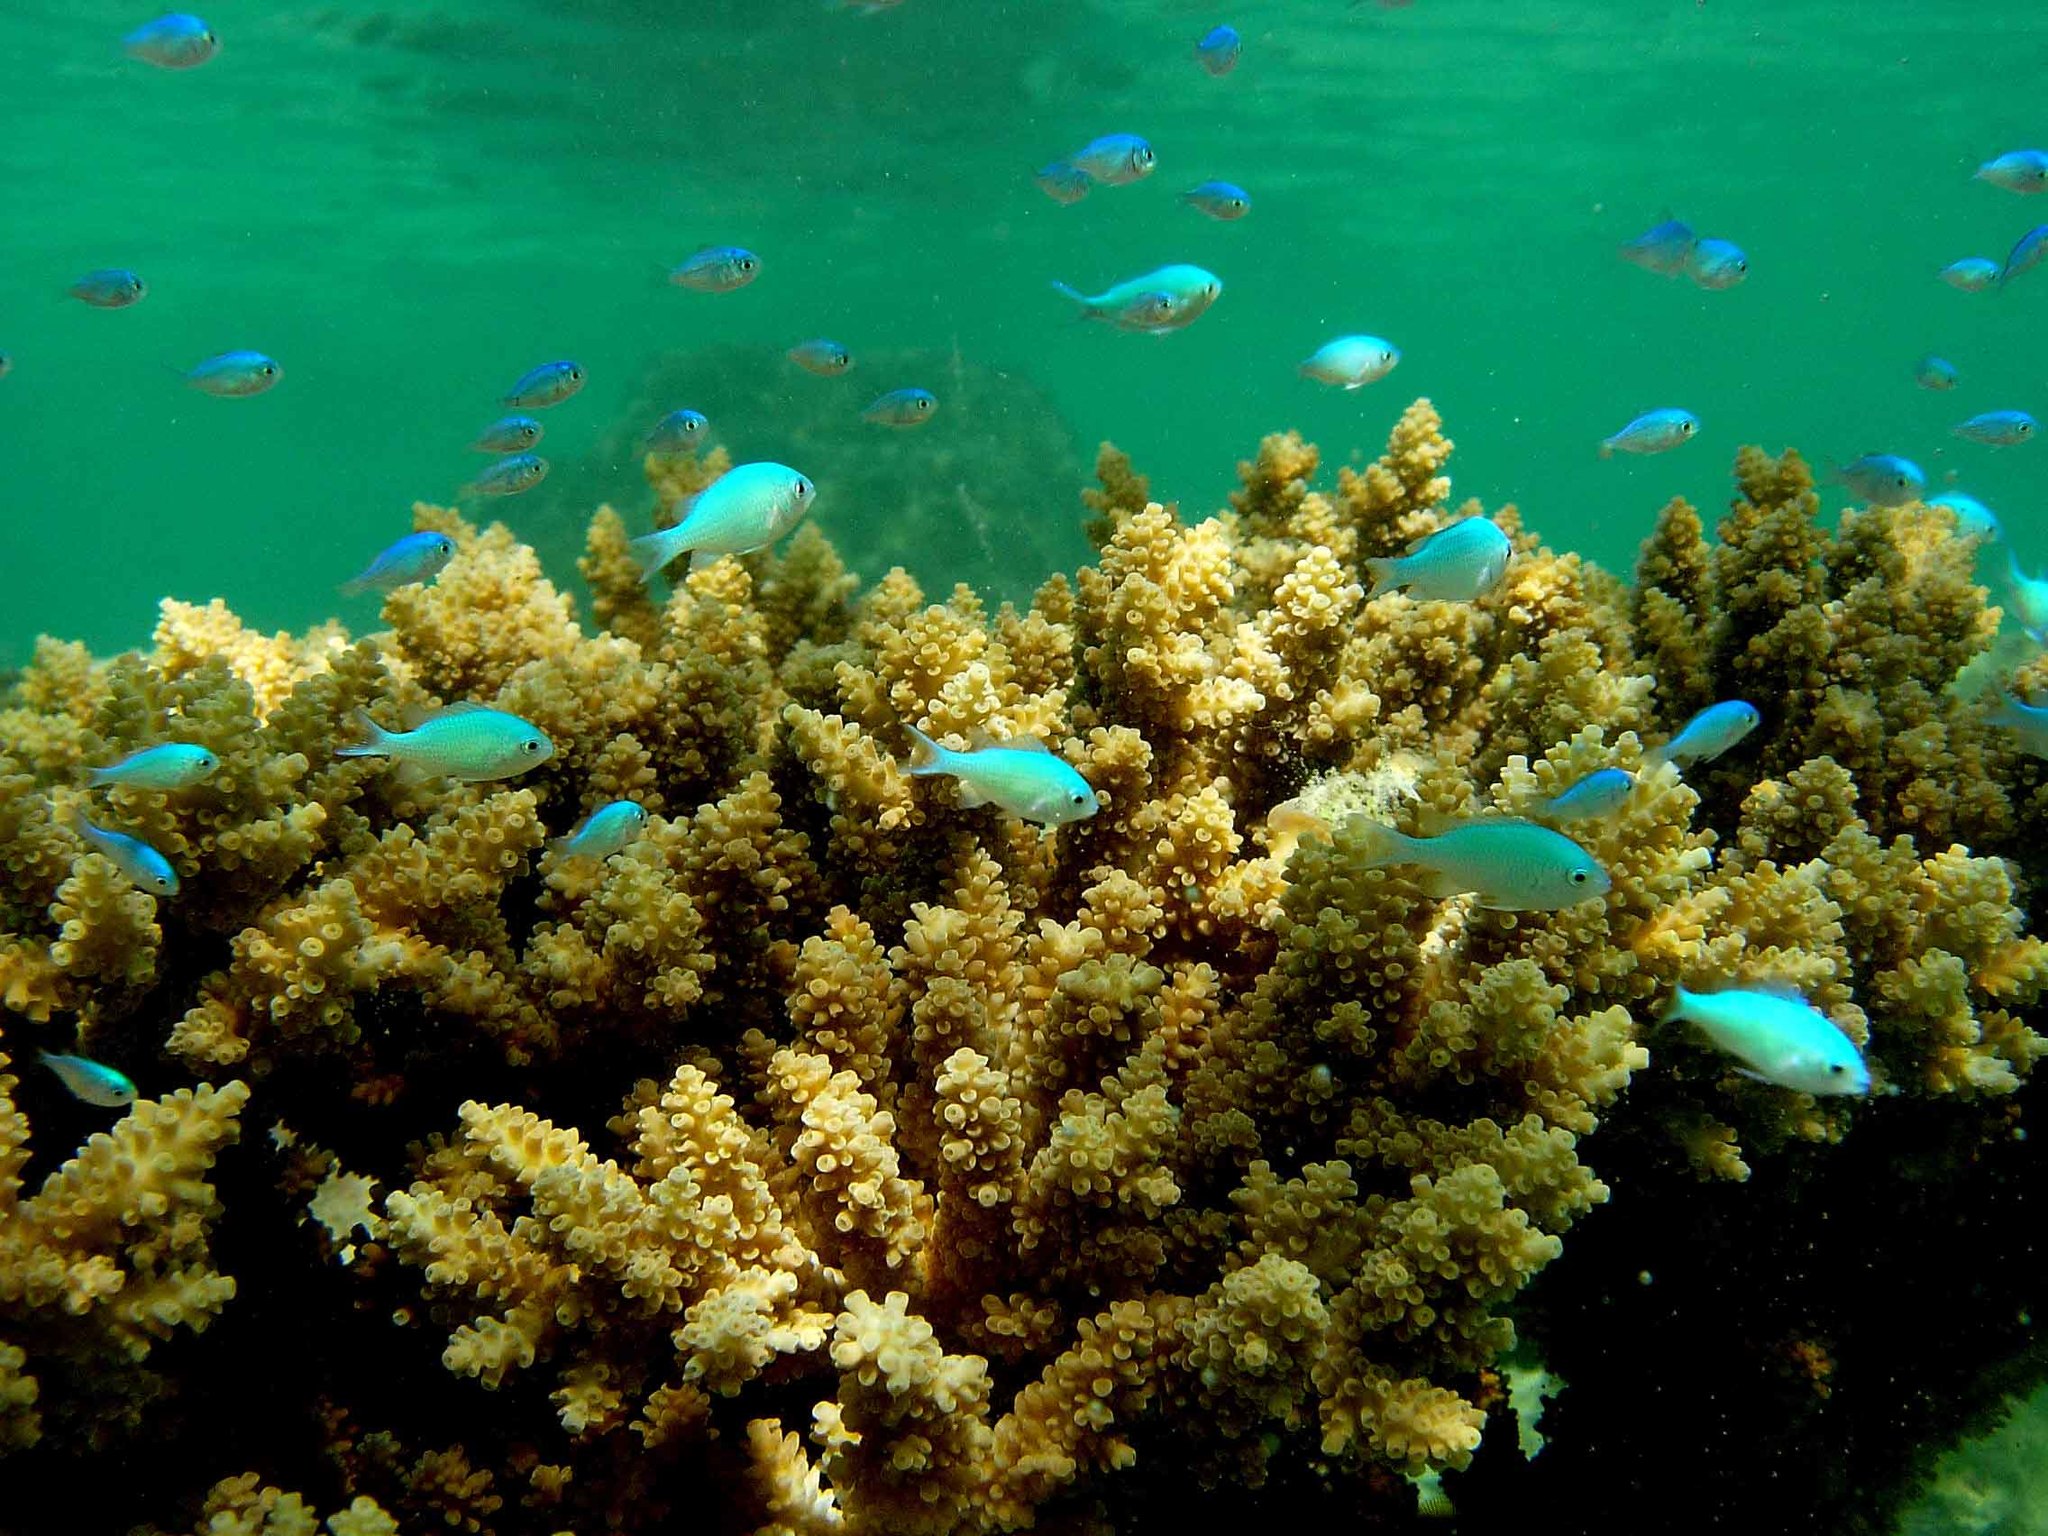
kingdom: Animalia
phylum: Chordata
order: Perciformes
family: Pomacentridae
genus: Chromis
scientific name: Chromis viridis
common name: Blue-green chromis
